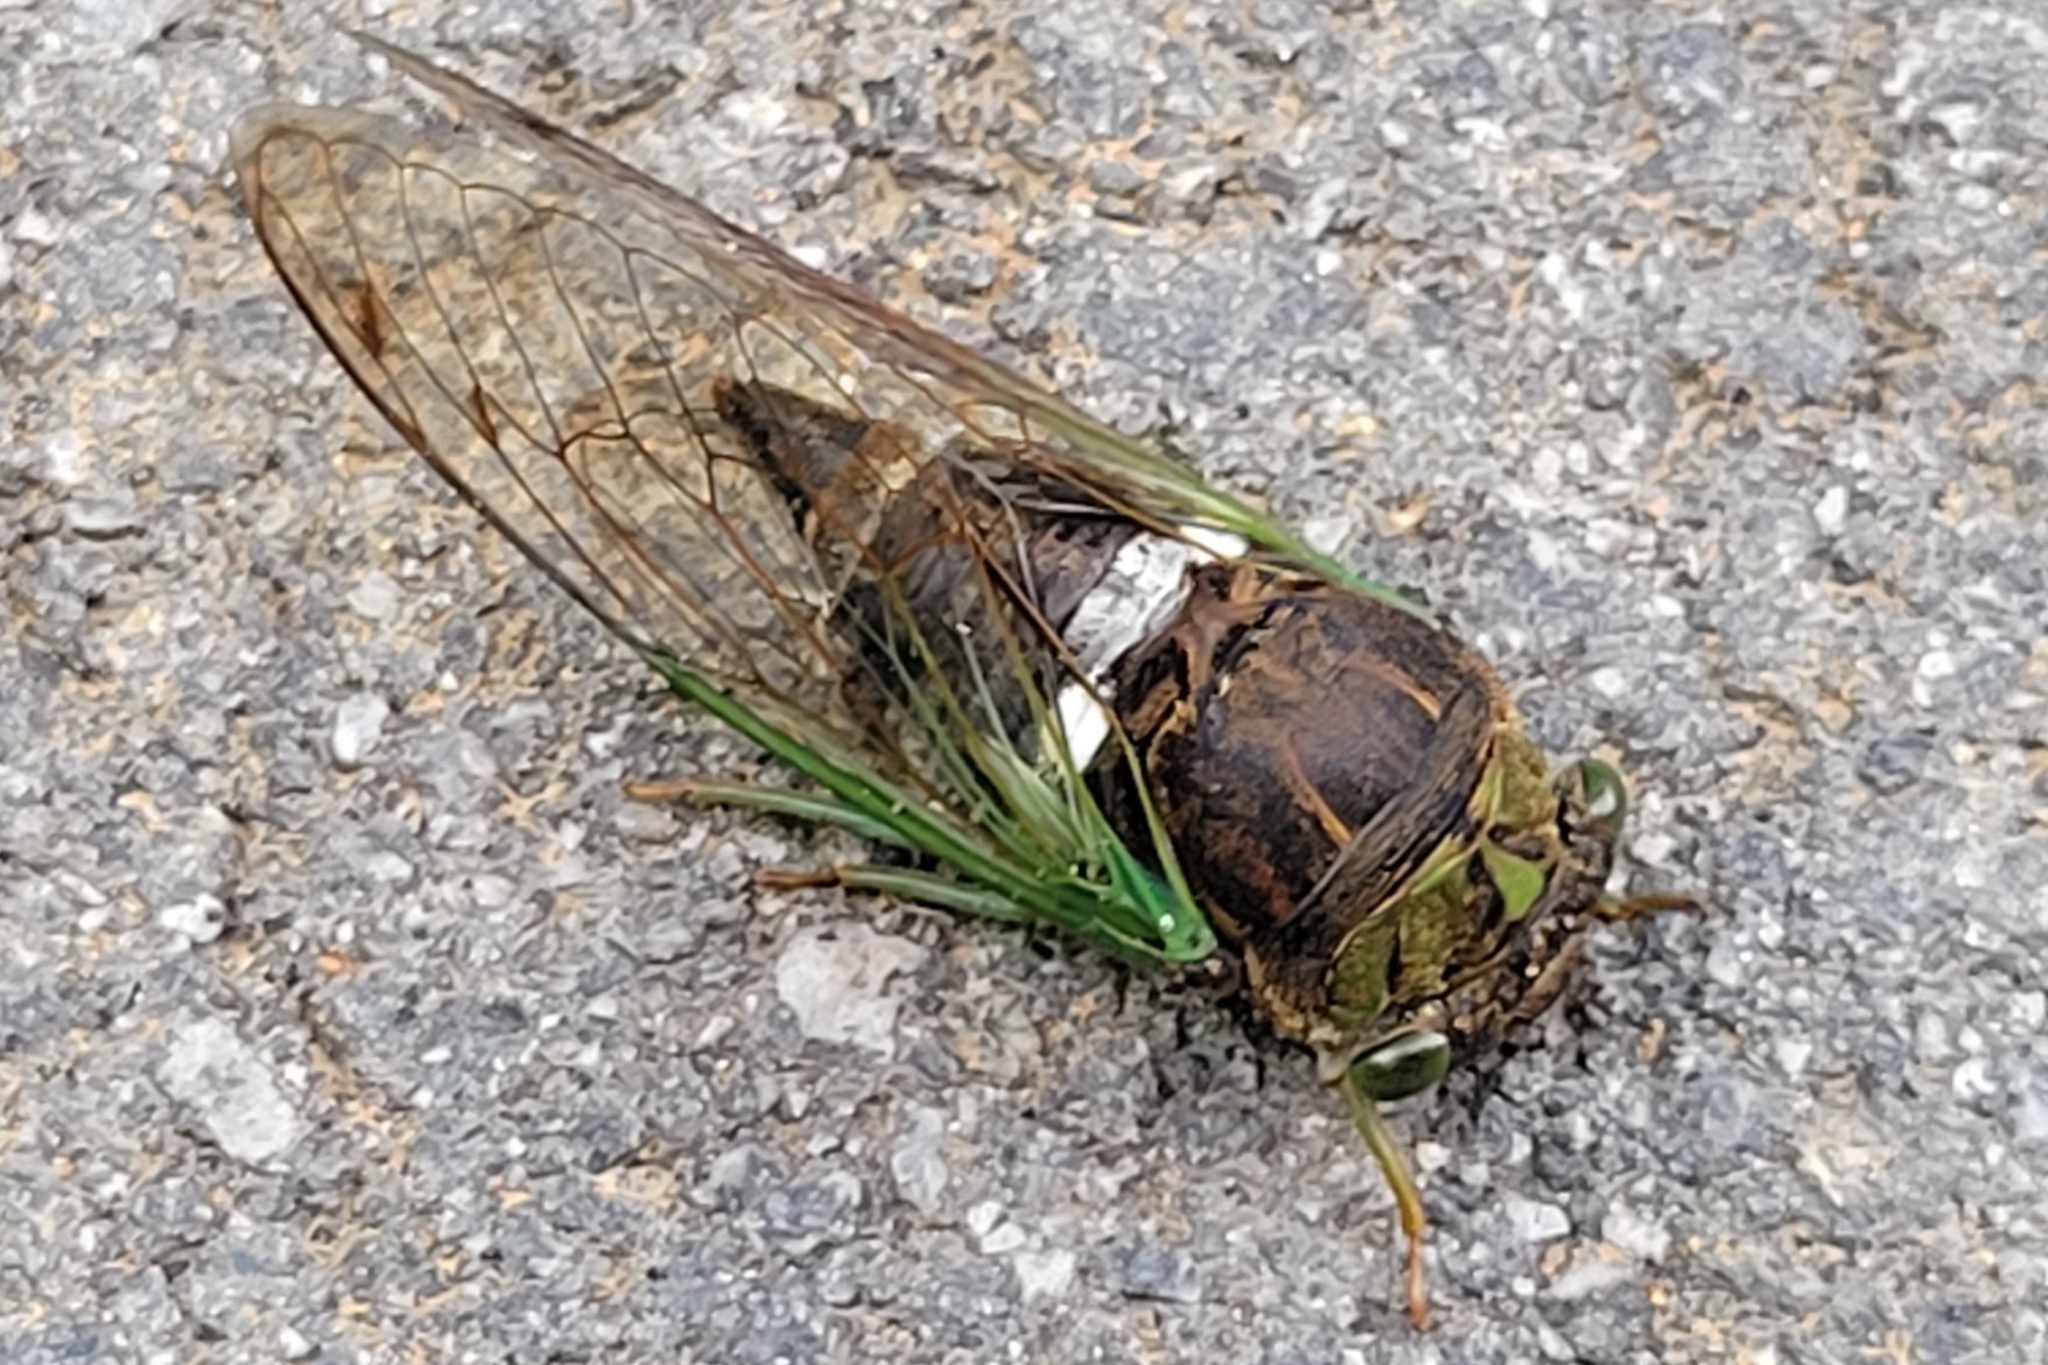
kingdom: Animalia
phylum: Arthropoda
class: Insecta
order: Hemiptera
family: Cicadidae
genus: Neotibicen
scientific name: Neotibicen tibicen
